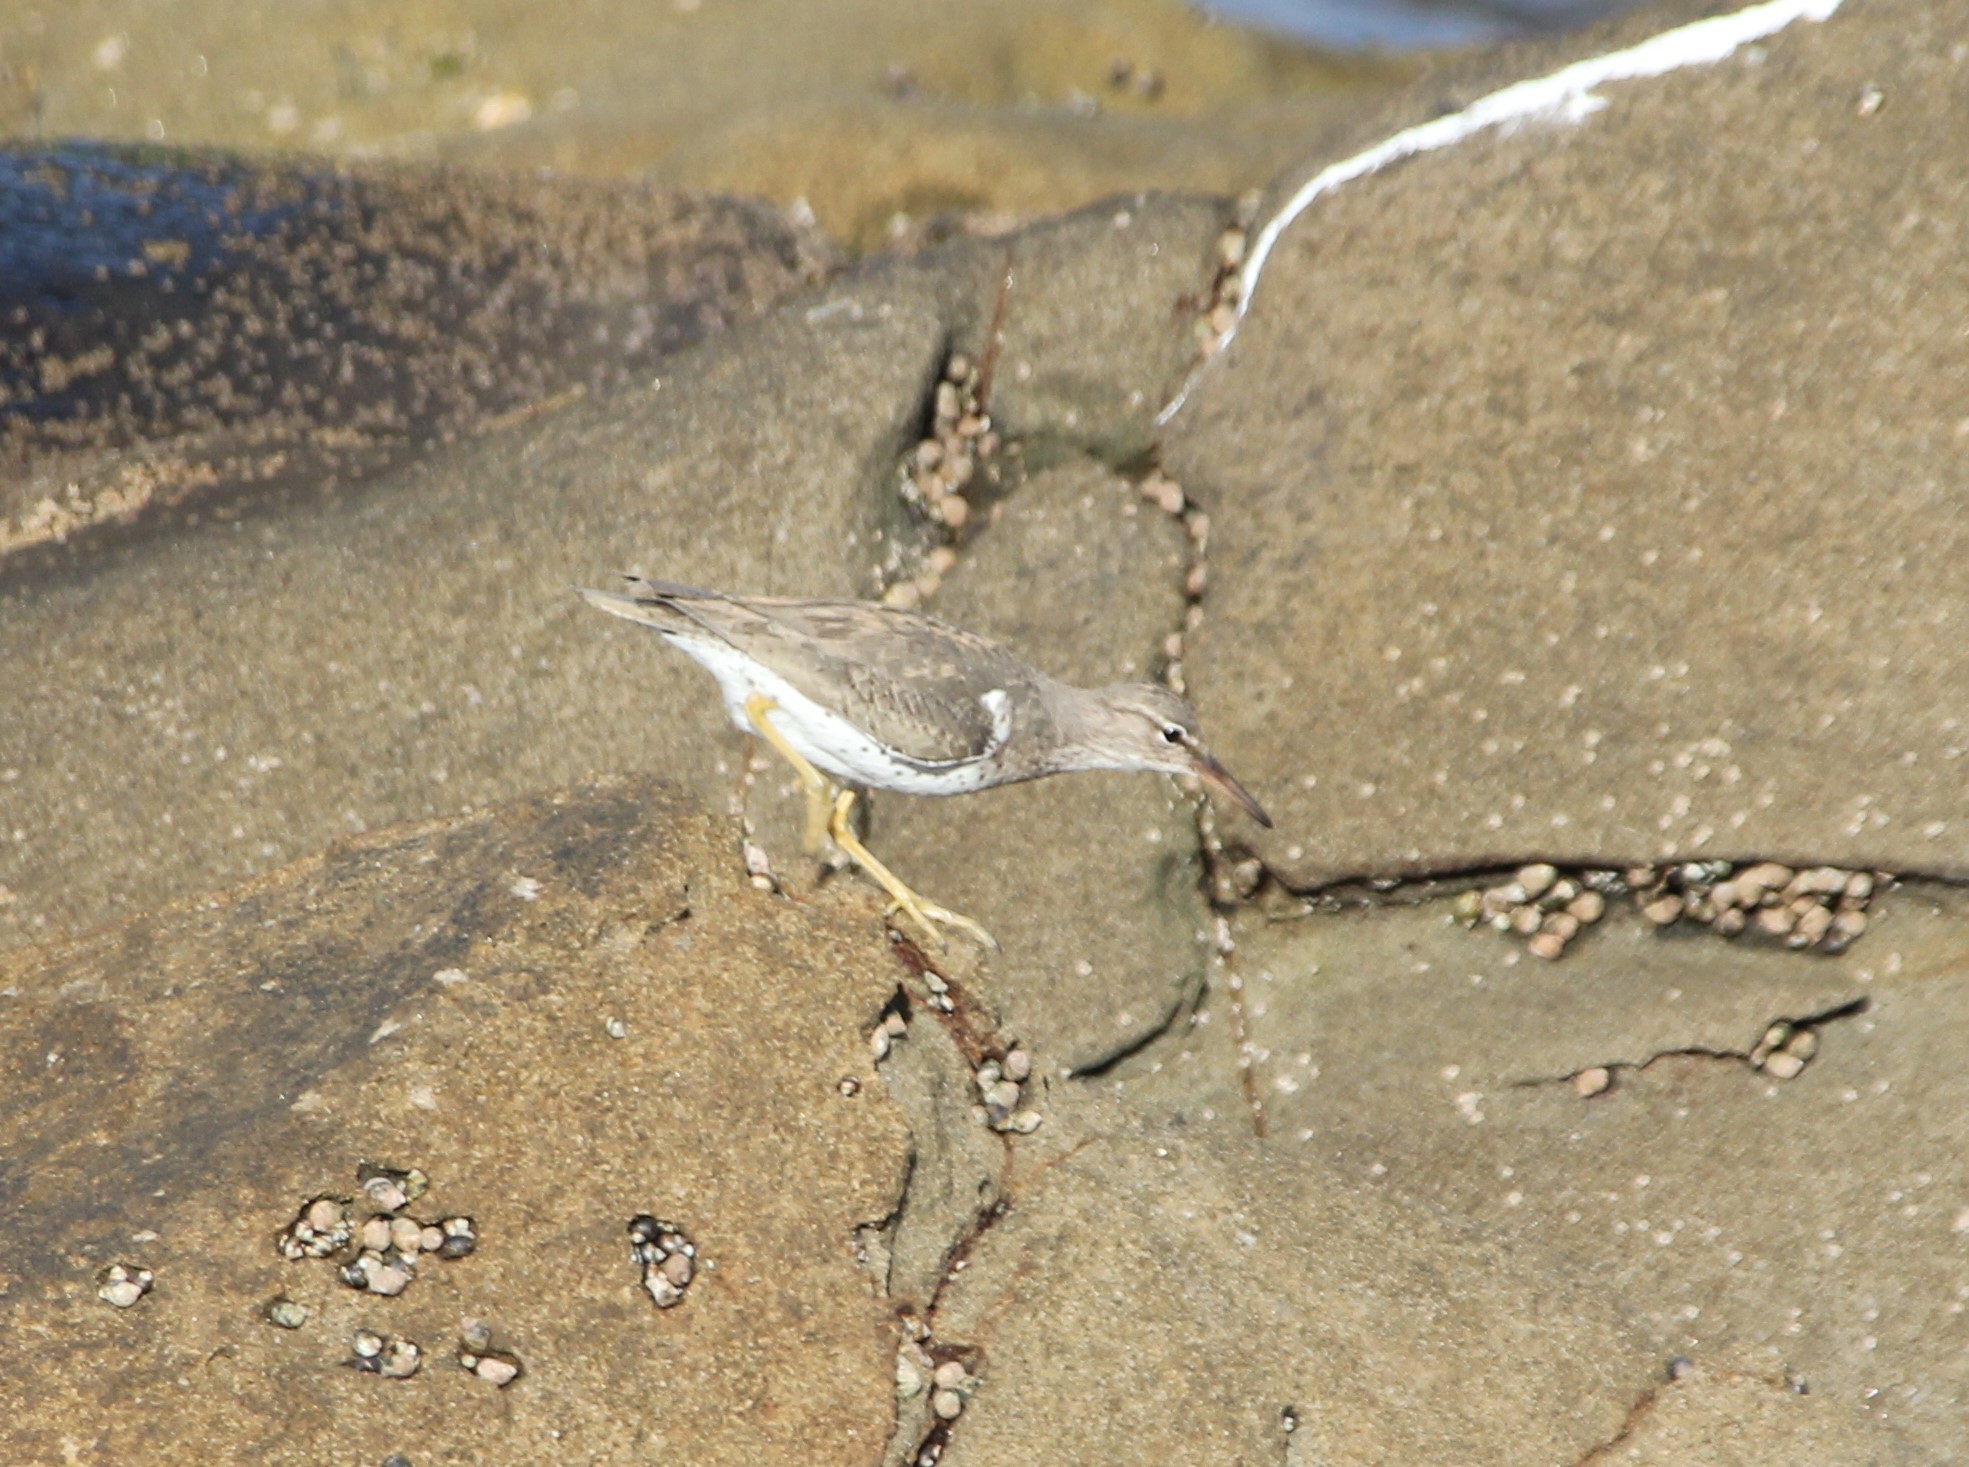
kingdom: Animalia
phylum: Chordata
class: Aves
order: Charadriiformes
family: Scolopacidae
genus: Actitis
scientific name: Actitis macularius
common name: Spotted sandpiper
